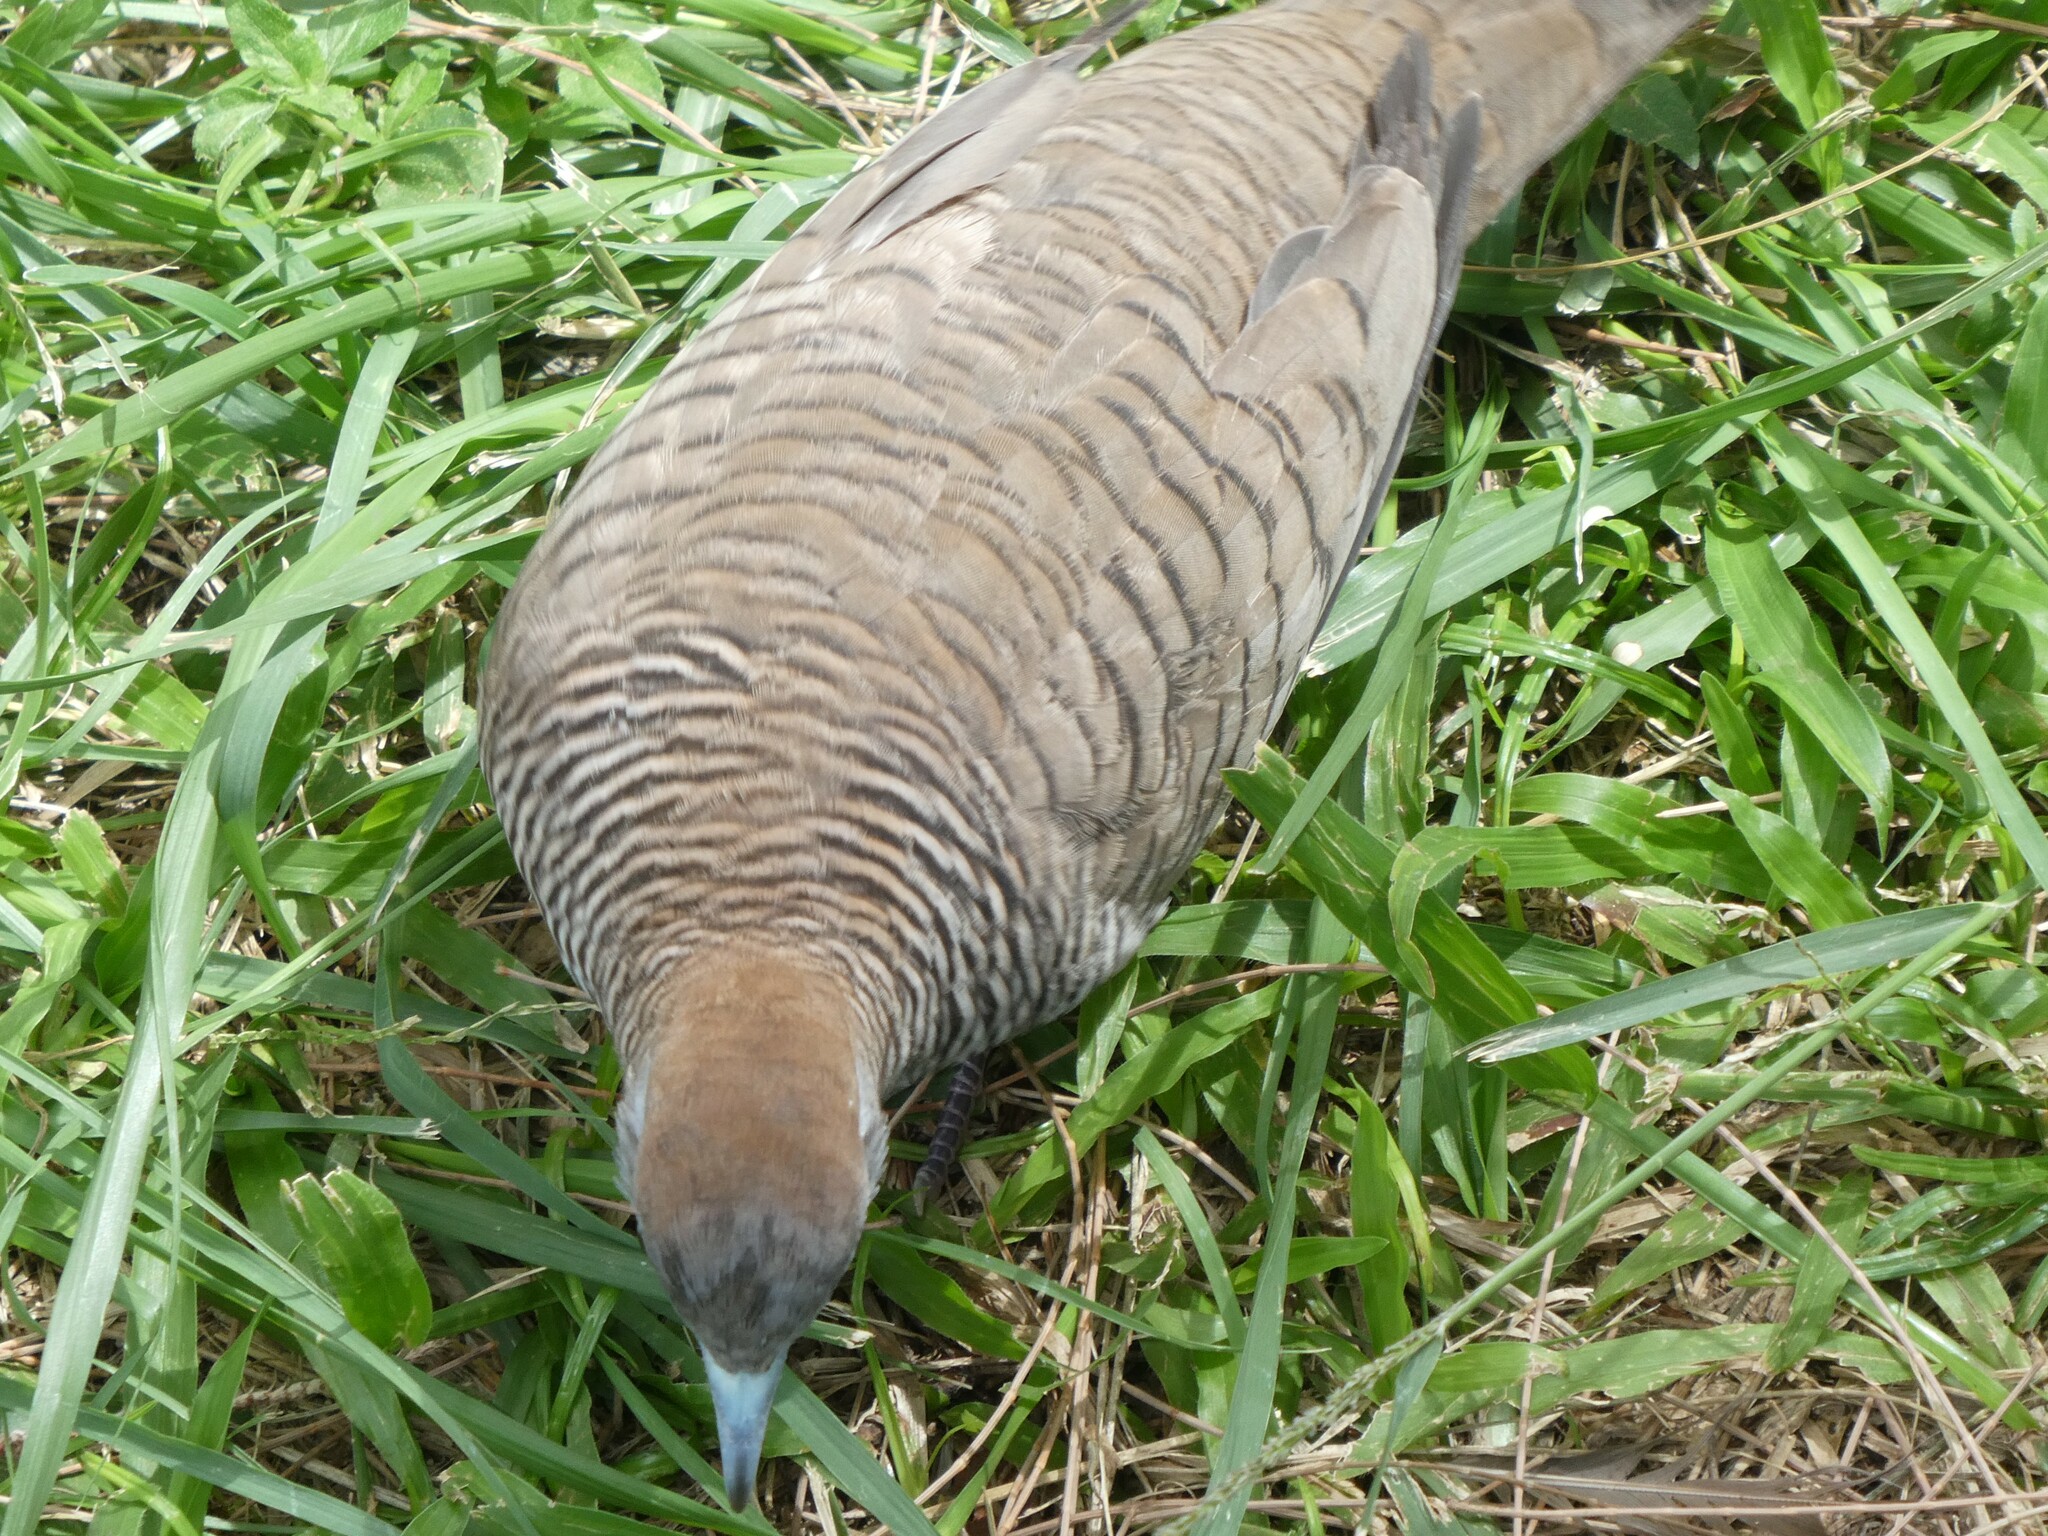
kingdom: Animalia
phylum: Chordata
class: Aves
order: Columbiformes
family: Columbidae
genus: Geopelia
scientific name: Geopelia striata
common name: Zebra dove
